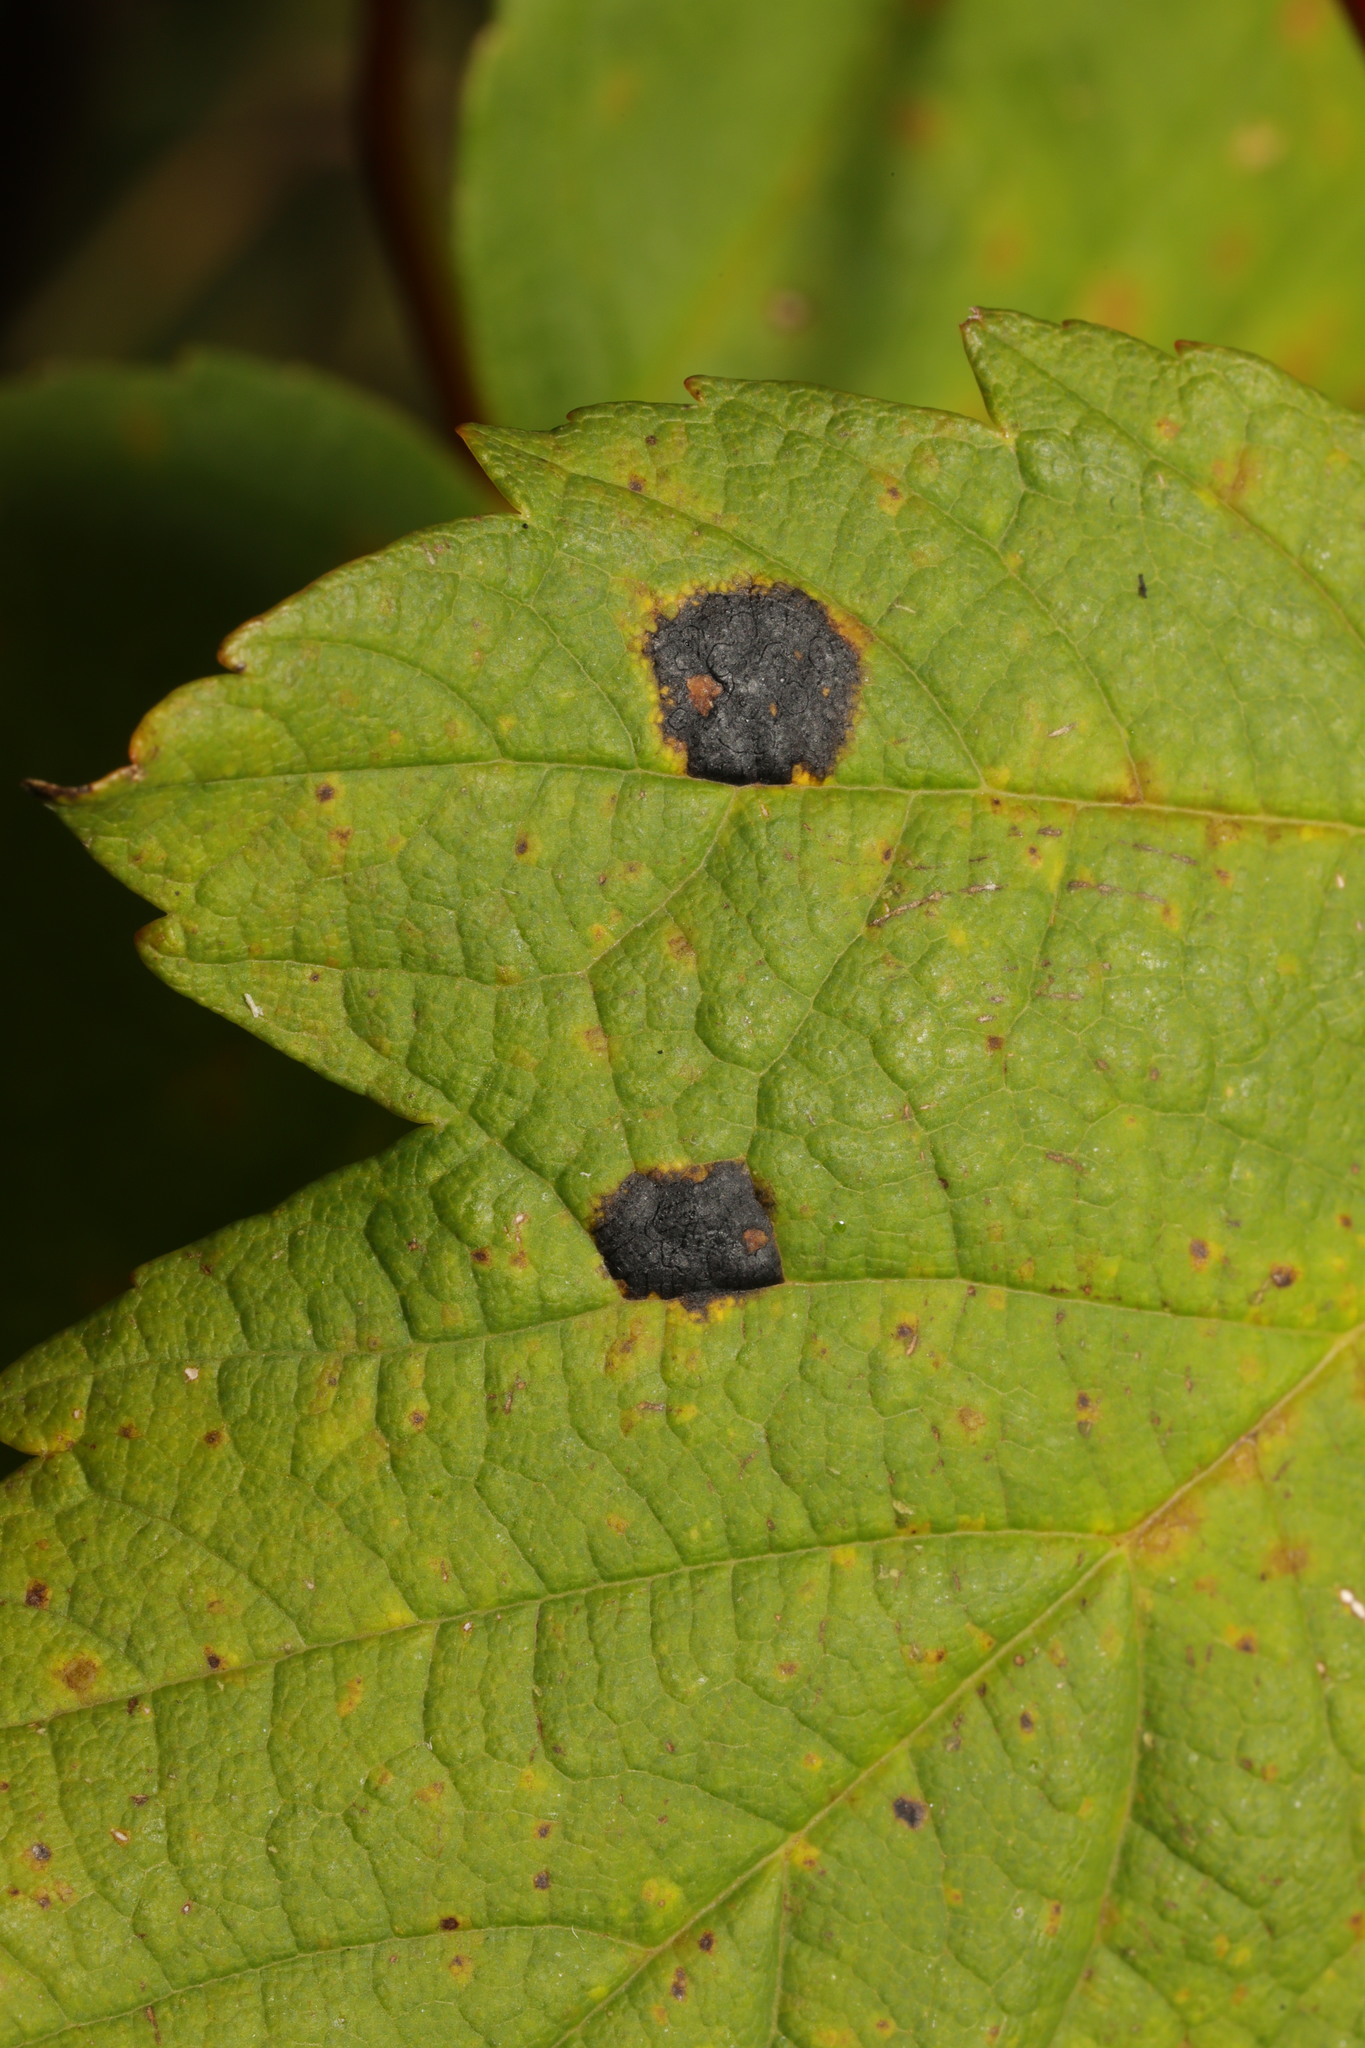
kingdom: Fungi
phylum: Ascomycota
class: Leotiomycetes
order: Rhytismatales
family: Rhytismataceae
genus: Rhytisma
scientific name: Rhytisma acerinum
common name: European tar spot
